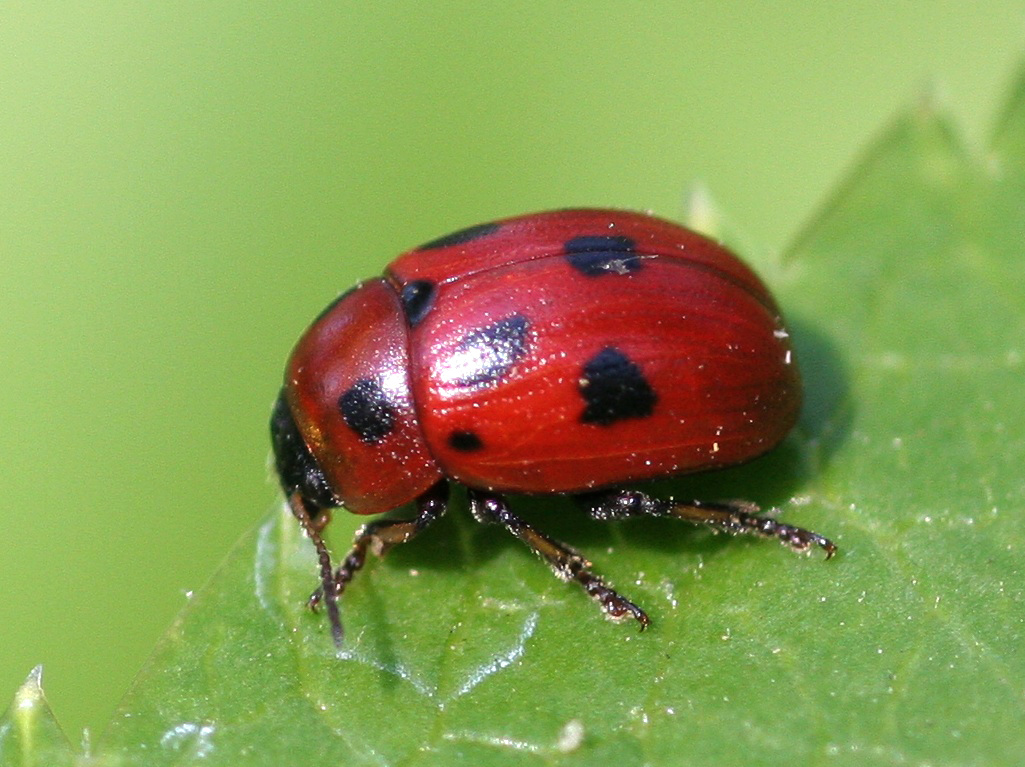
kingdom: Animalia
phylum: Arthropoda
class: Insecta
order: Coleoptera
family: Chrysomelidae
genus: Gonioctena
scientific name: Gonioctena fornicata
